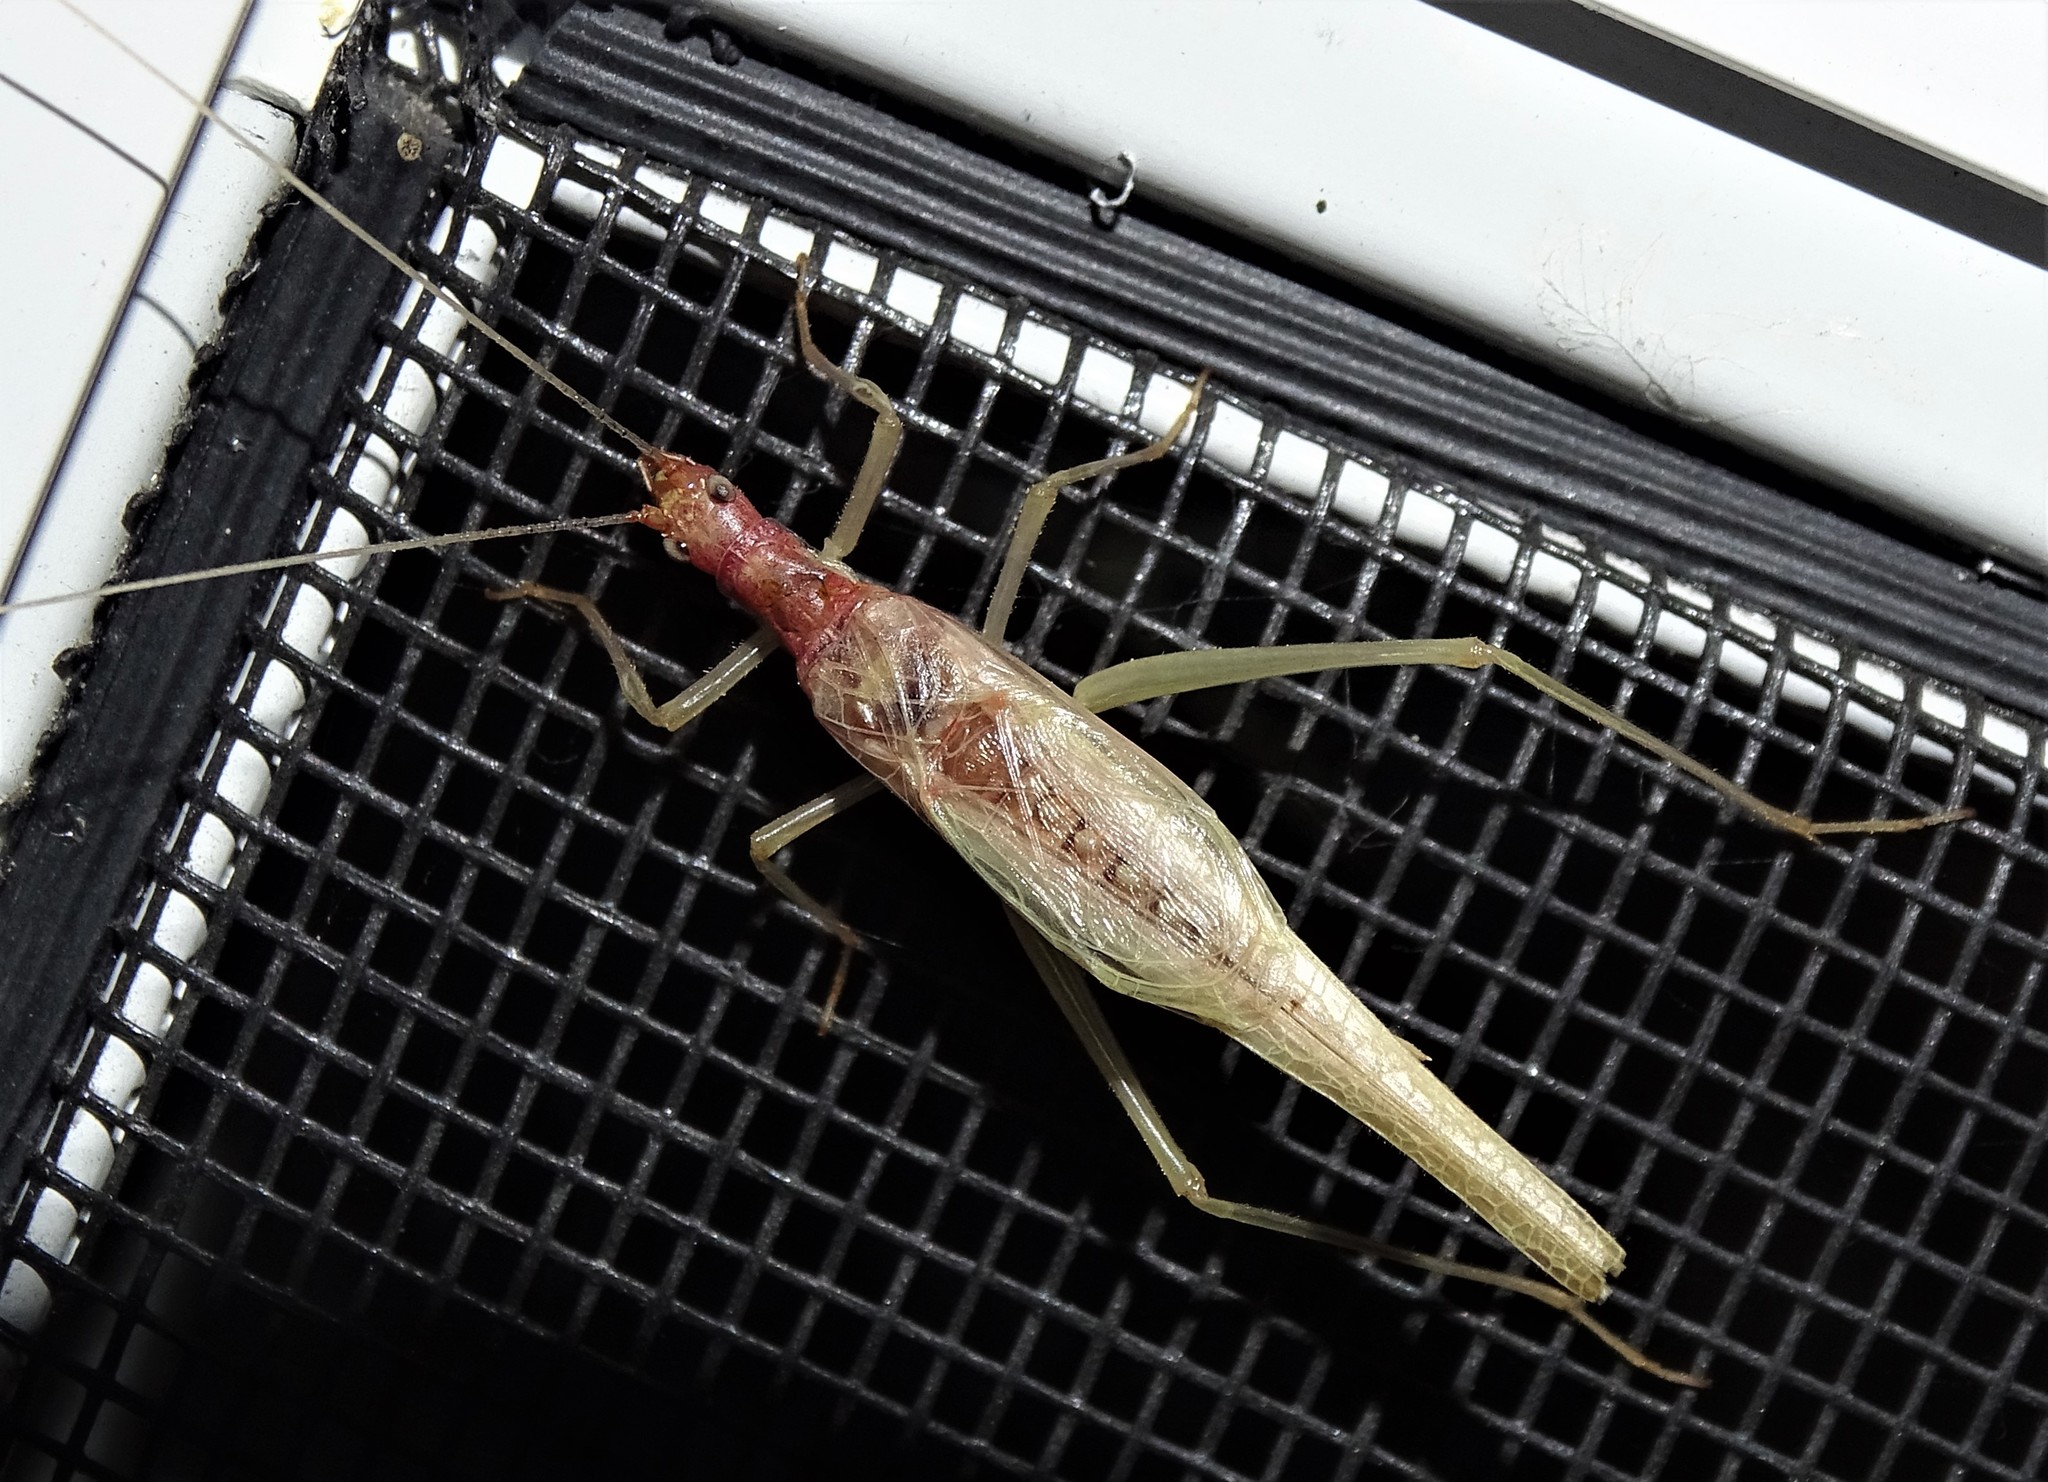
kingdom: Animalia
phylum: Arthropoda
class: Insecta
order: Orthoptera
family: Gryllidae
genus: Neoxabea
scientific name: Neoxabea bipunctata
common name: Two-spotted tree cricket
